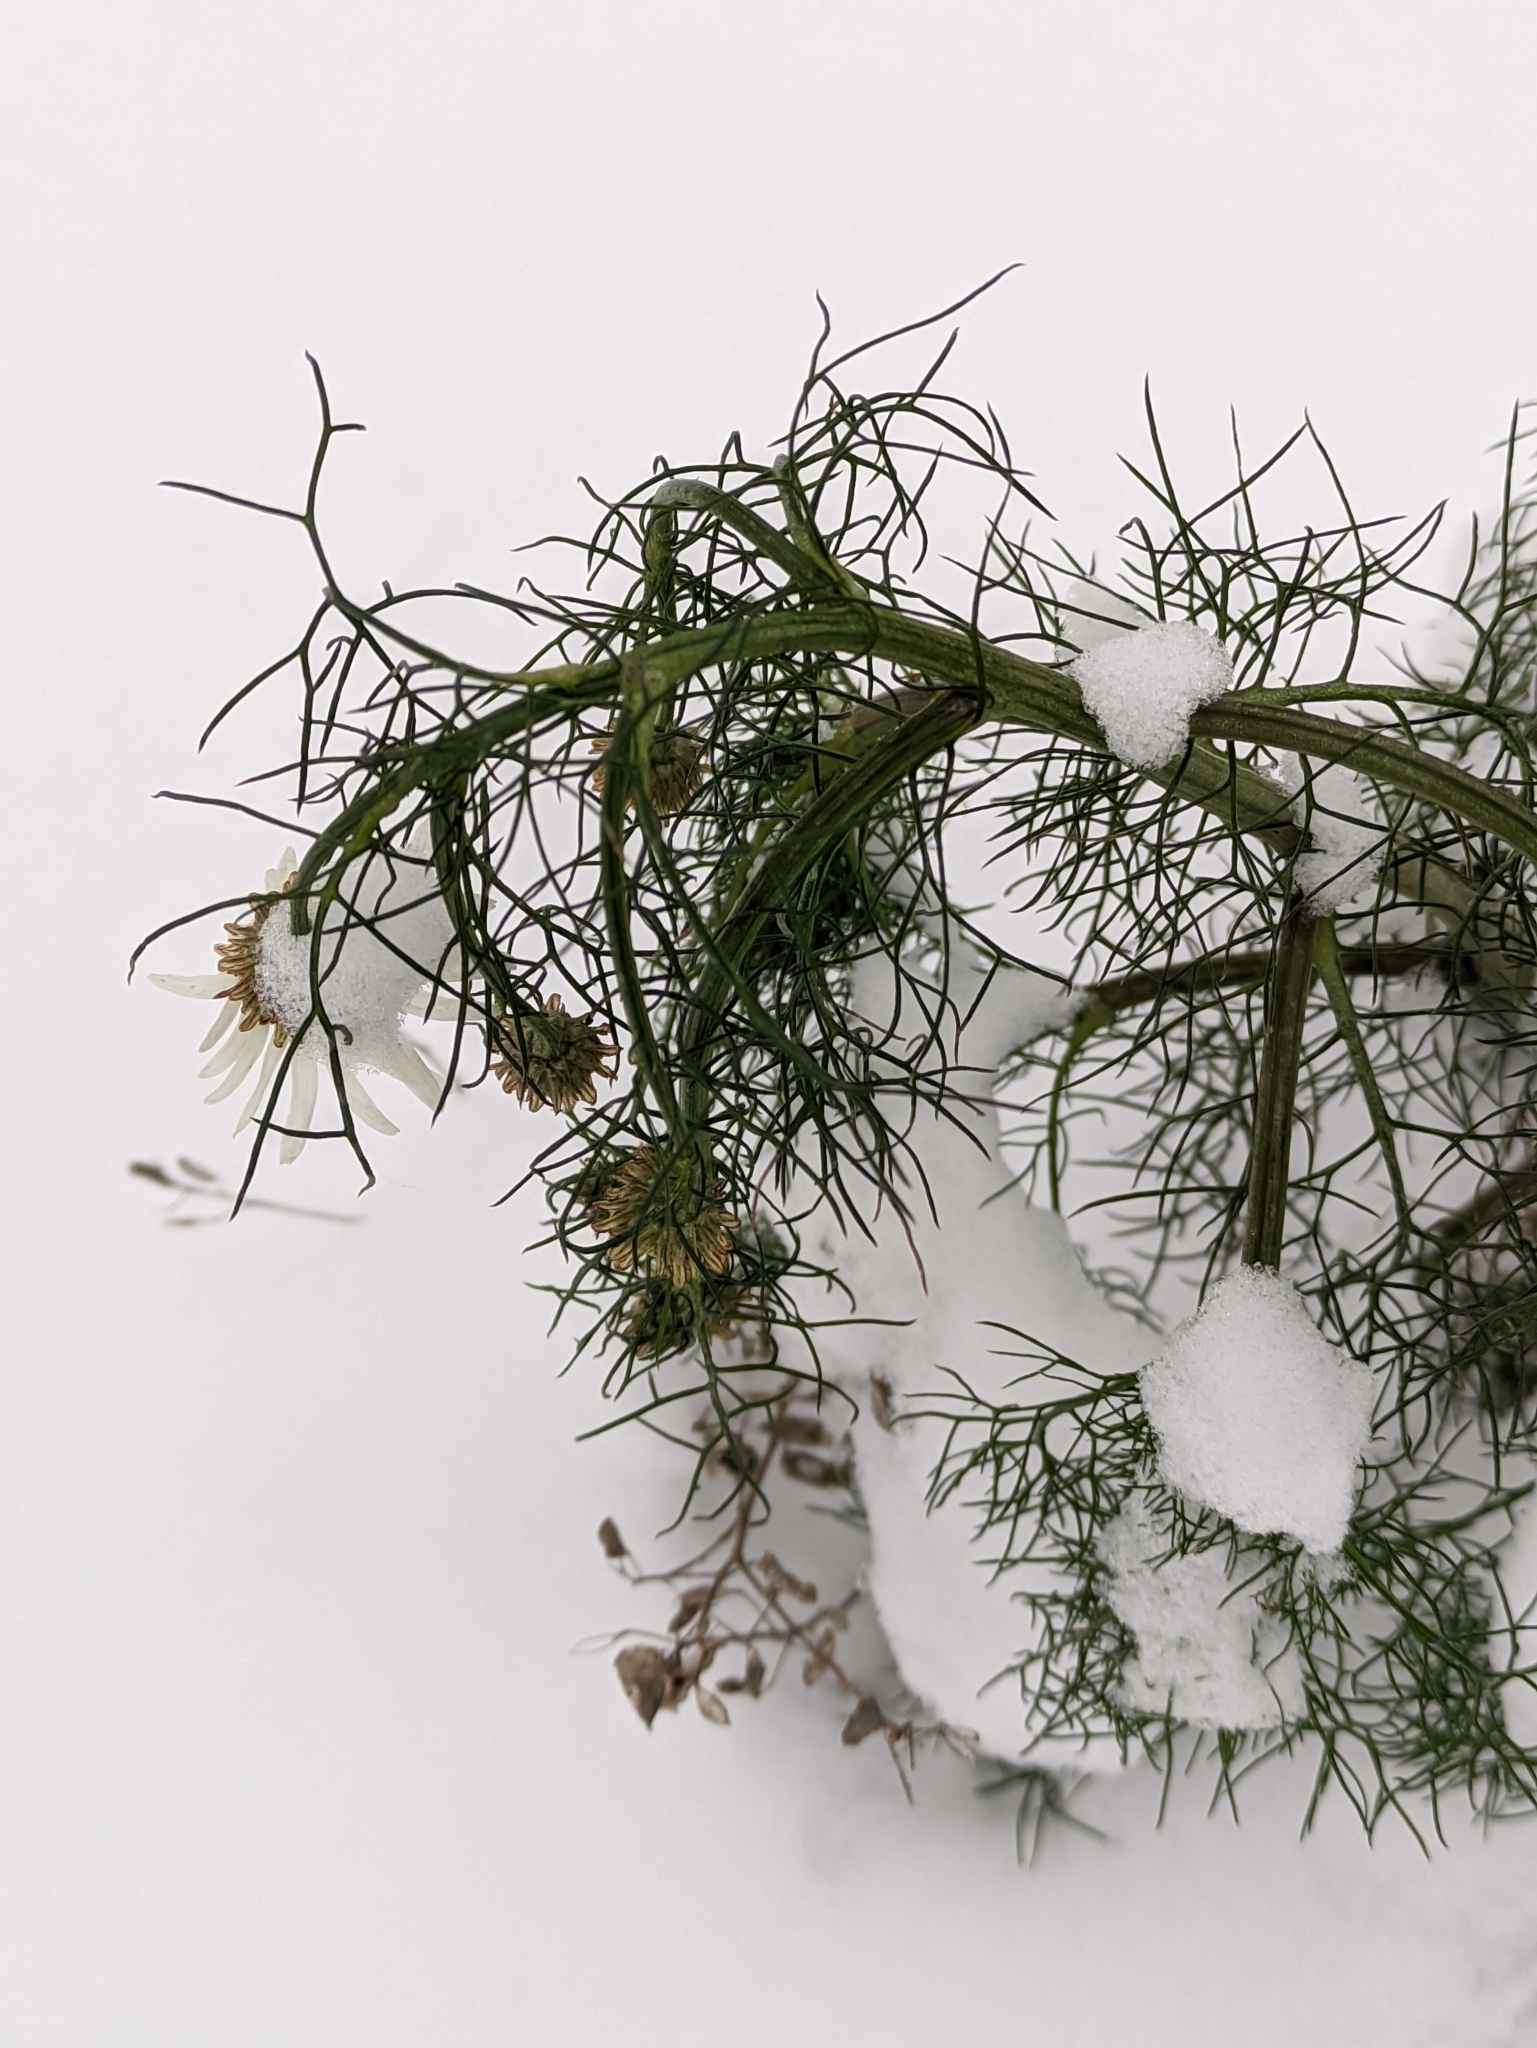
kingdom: Plantae
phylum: Tracheophyta
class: Magnoliopsida
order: Asterales
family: Asteraceae
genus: Tripleurospermum
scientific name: Tripleurospermum inodorum
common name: Scentless mayweed
